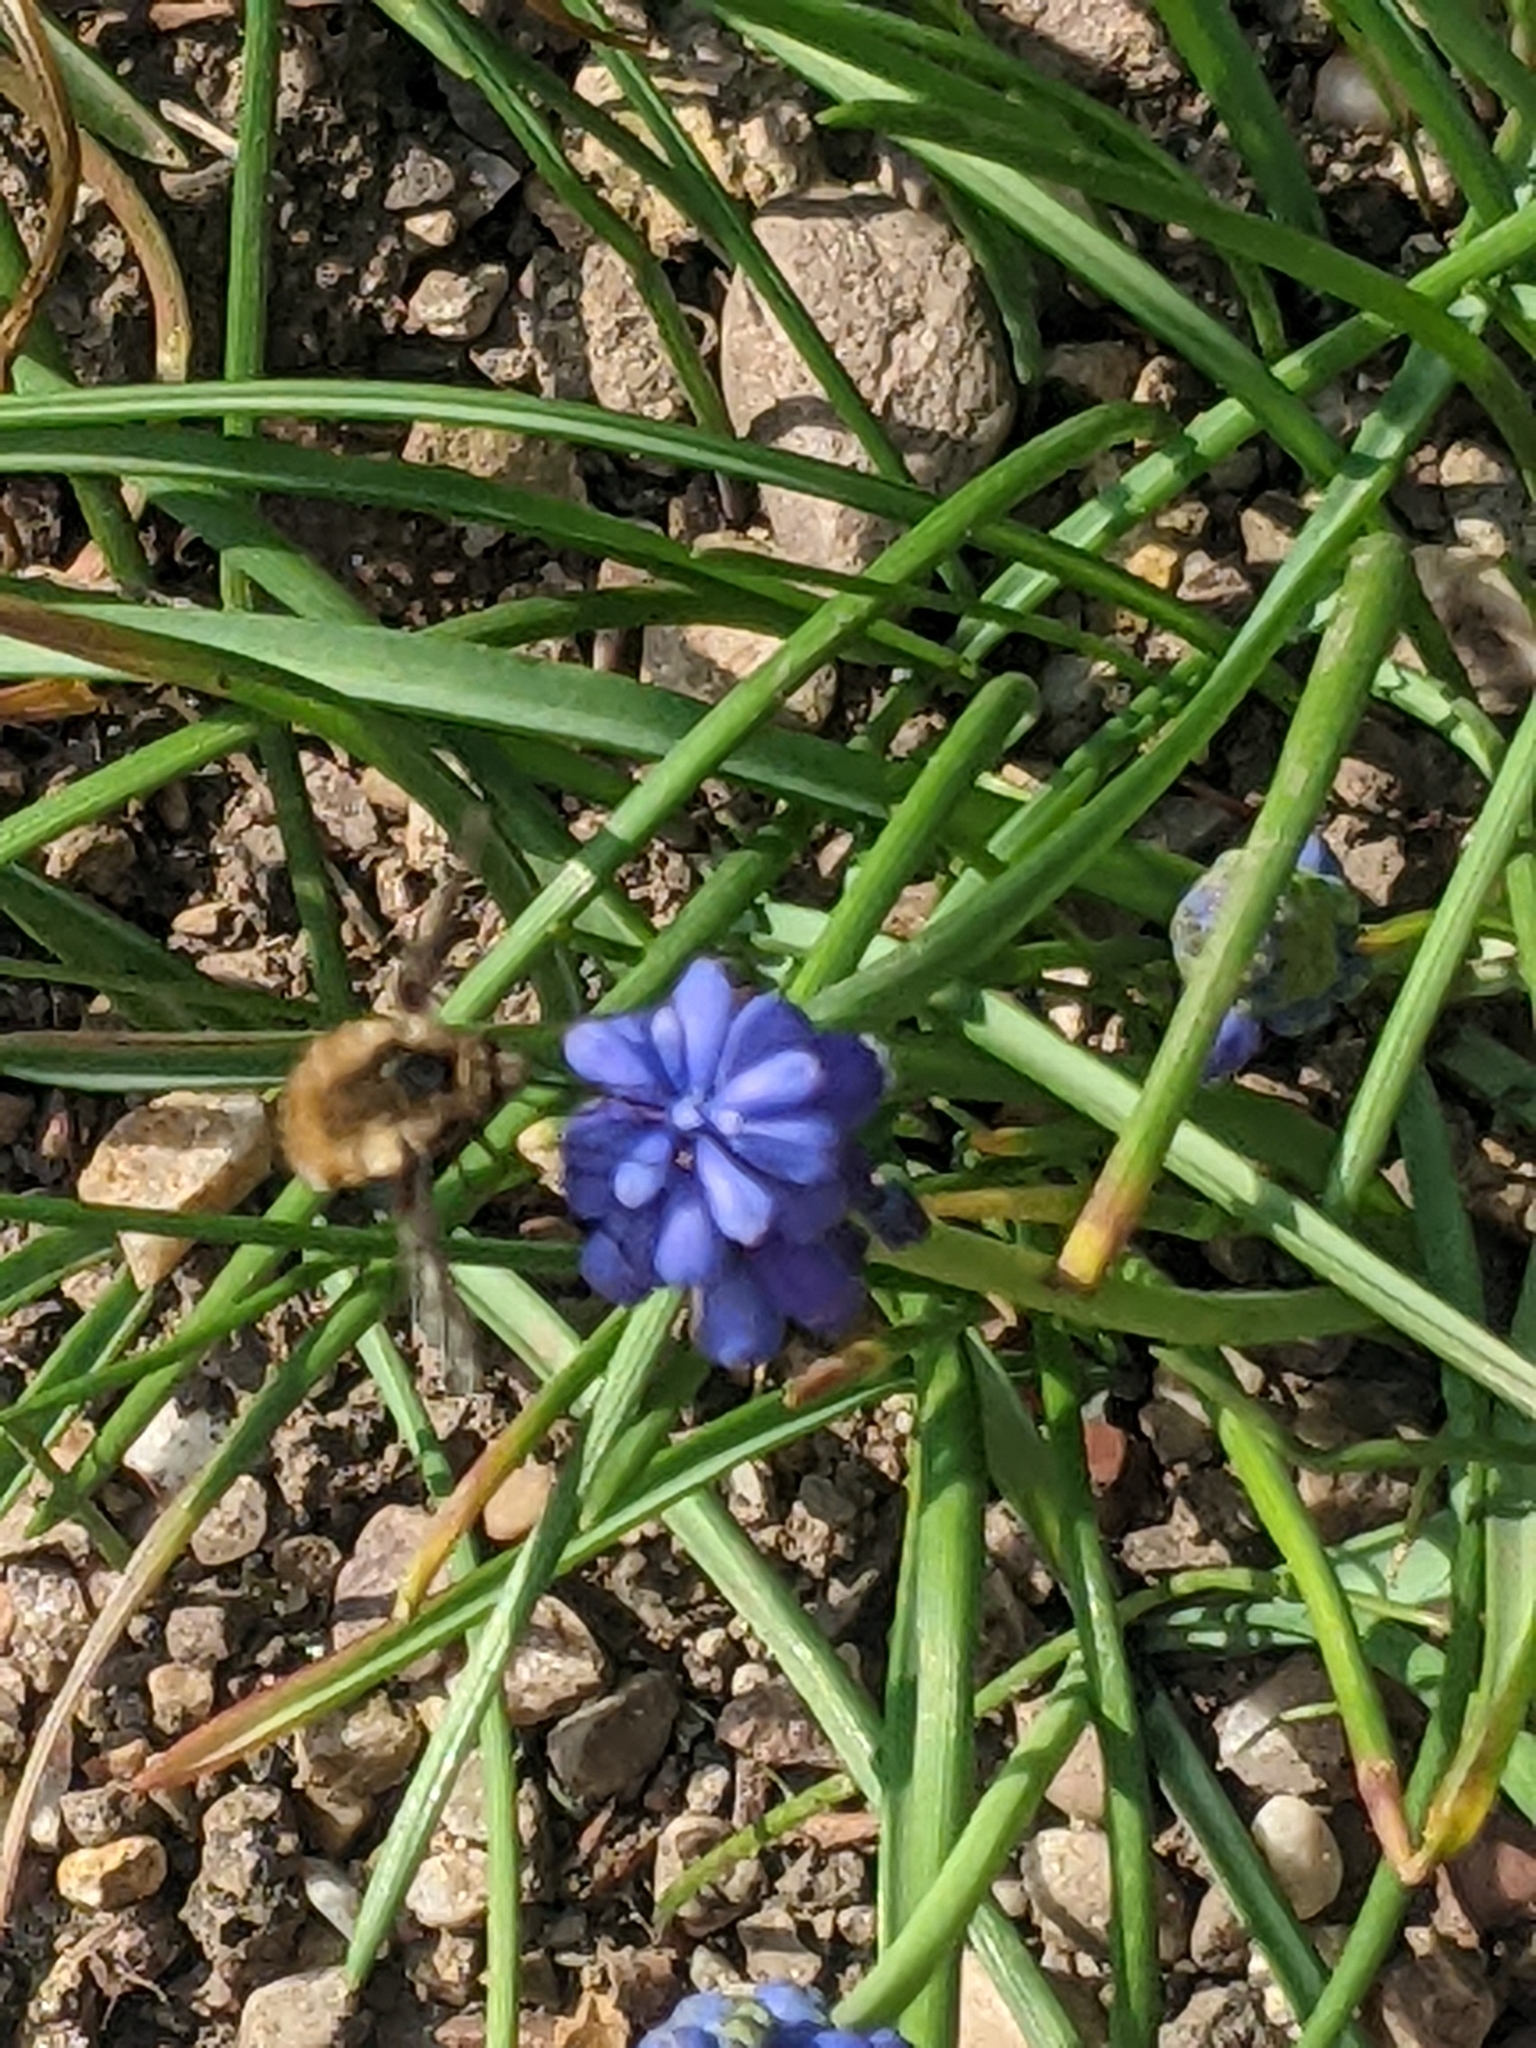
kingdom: Animalia
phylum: Arthropoda
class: Insecta
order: Diptera
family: Bombyliidae
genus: Bombylius
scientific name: Bombylius major
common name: Bee fly
